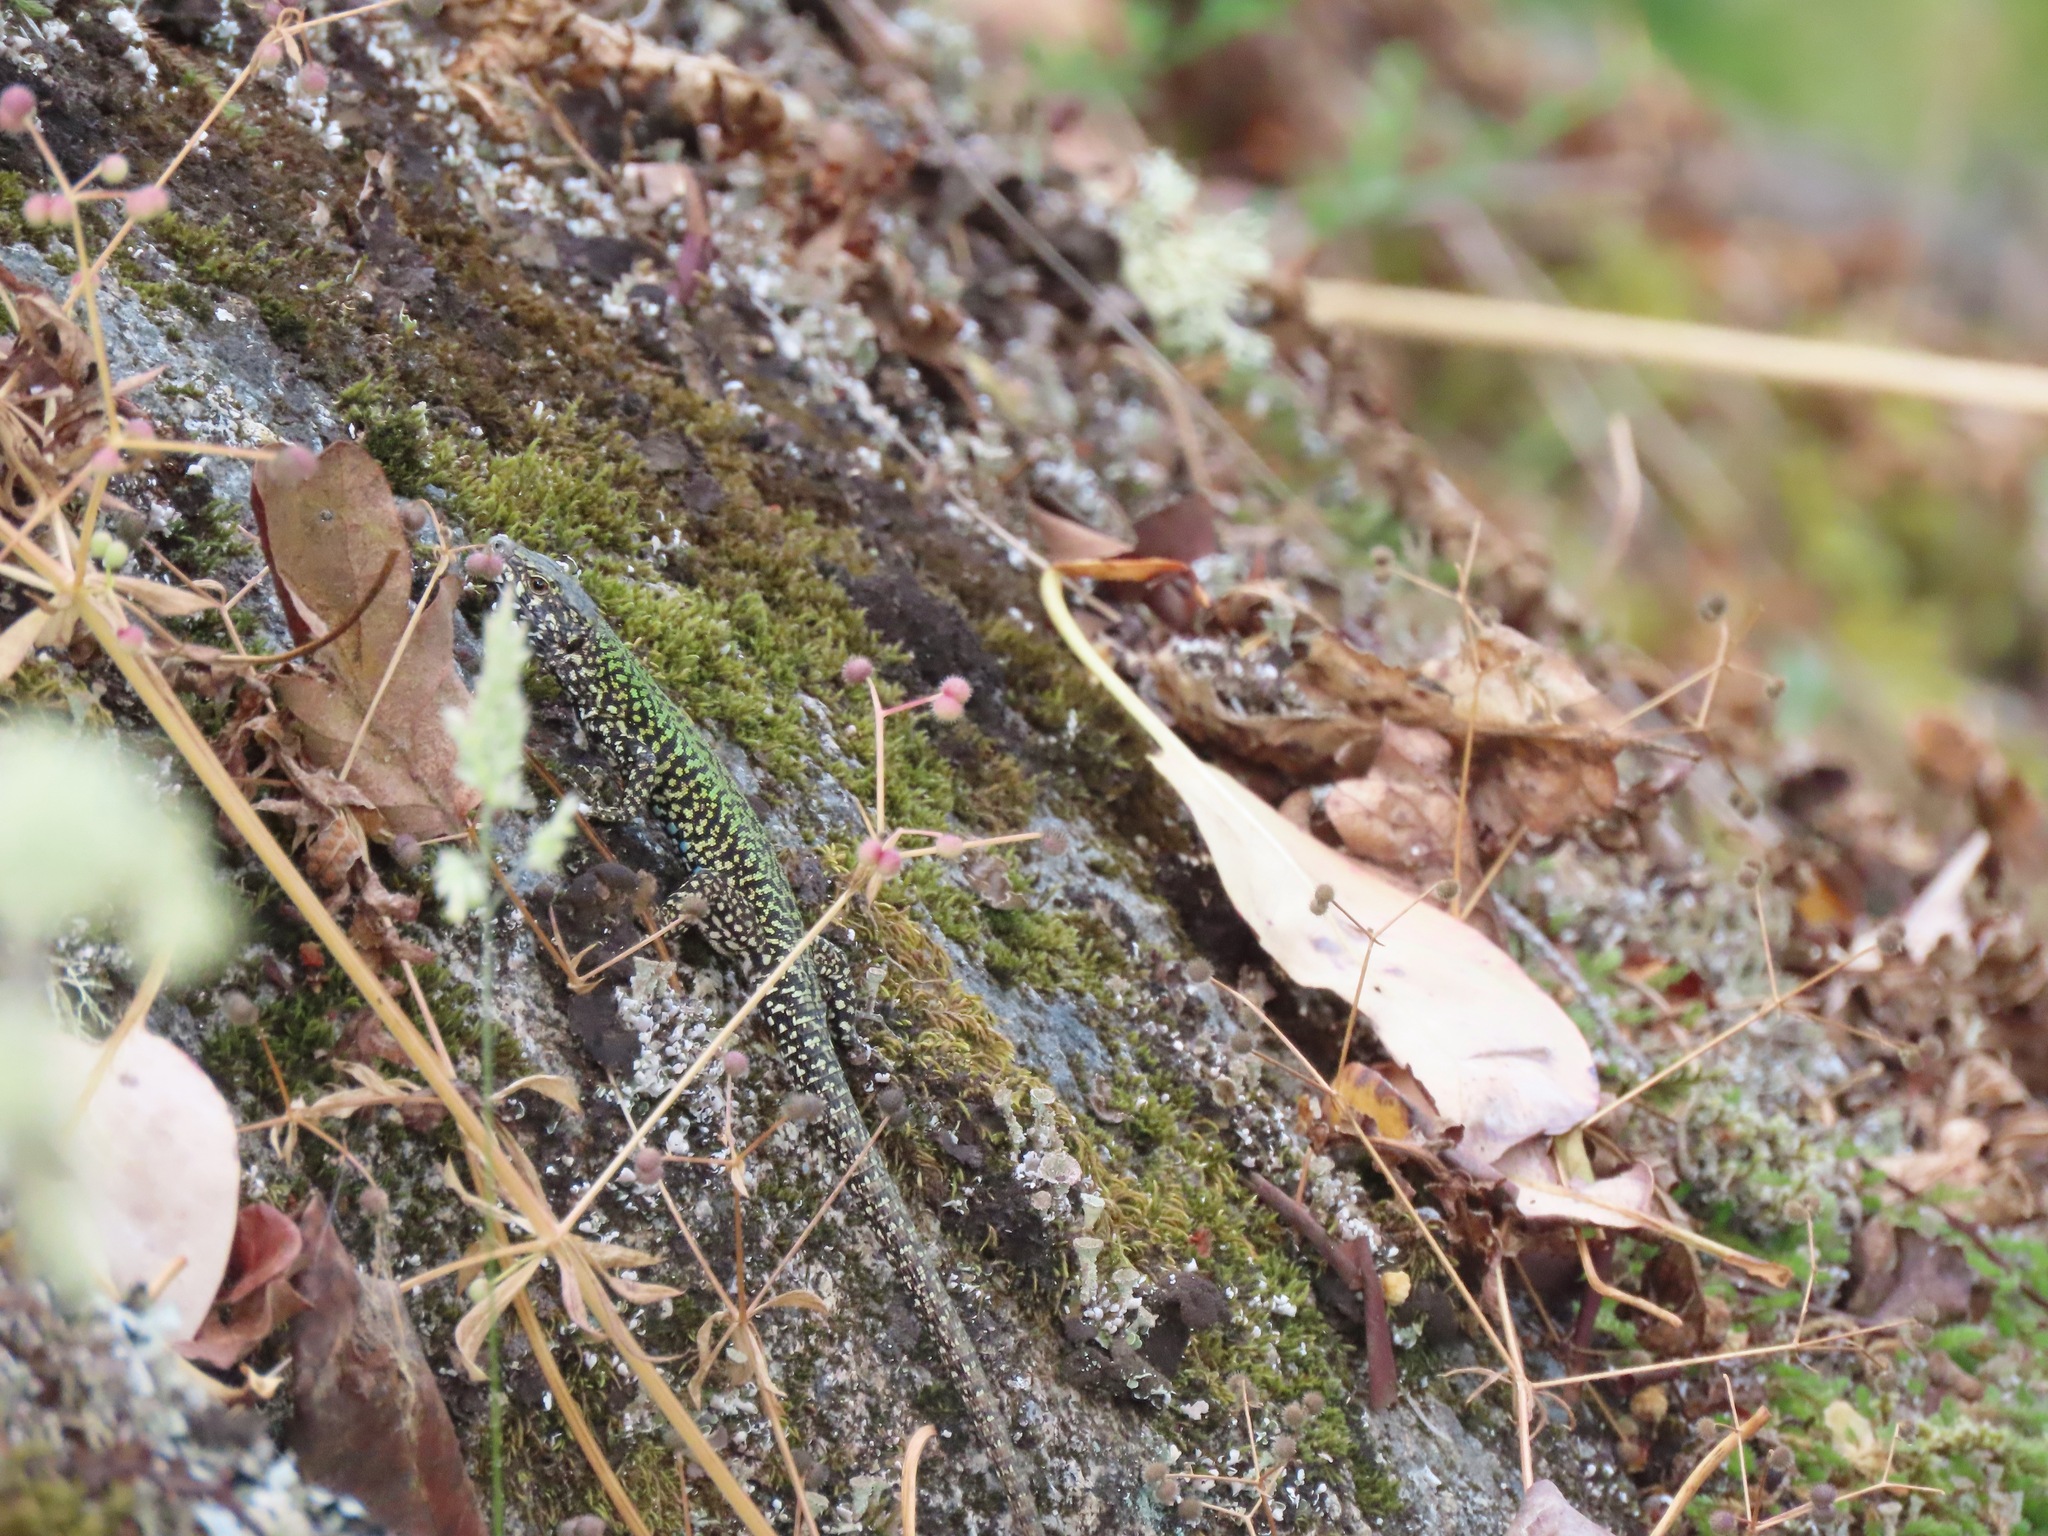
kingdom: Animalia
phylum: Chordata
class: Squamata
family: Lacertidae
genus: Podarcis
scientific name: Podarcis muralis
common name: Common wall lizard
